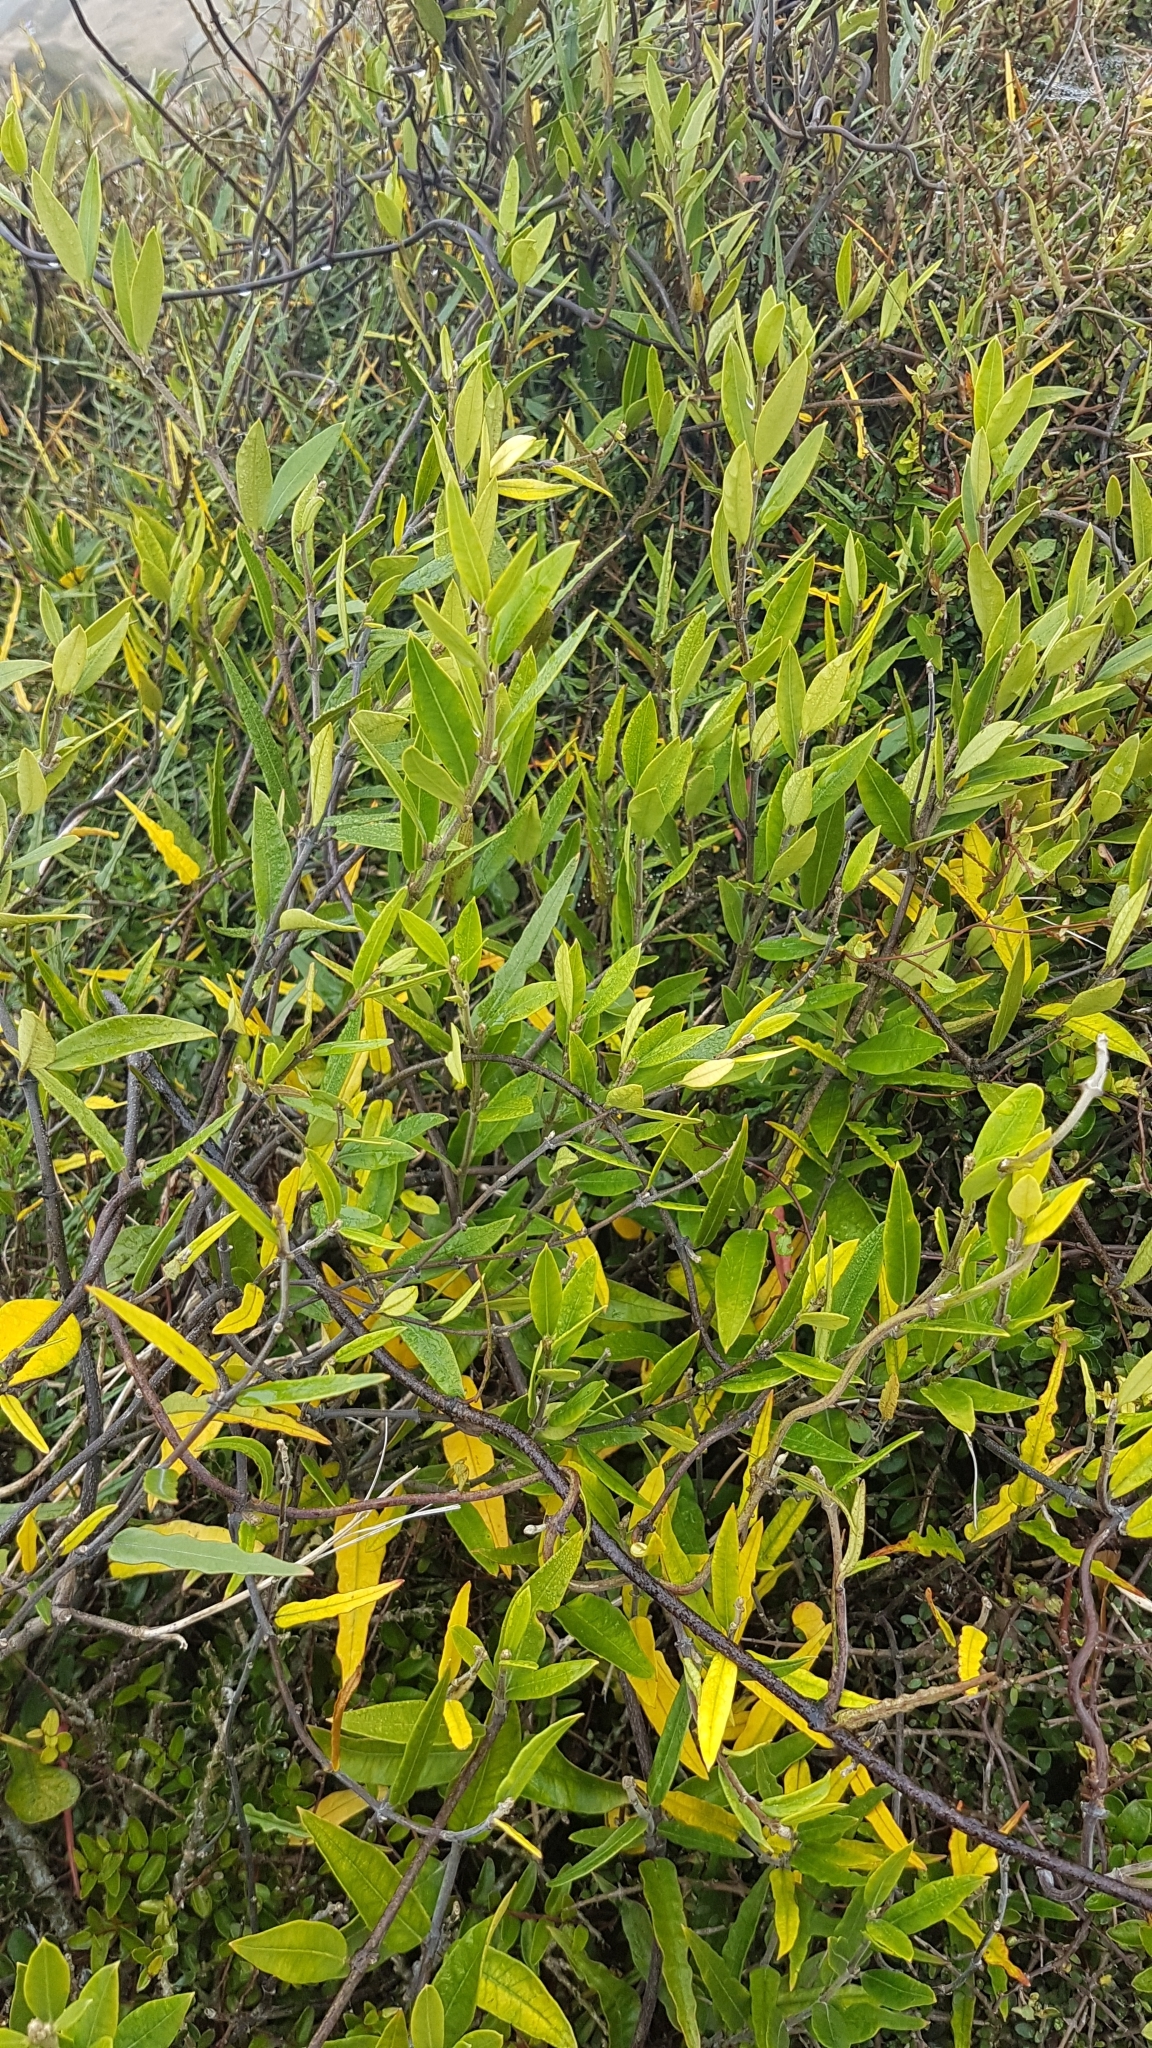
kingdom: Plantae
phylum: Tracheophyta
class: Magnoliopsida
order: Gentianales
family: Apocynaceae
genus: Parsonsia
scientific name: Parsonsia heterophylla
